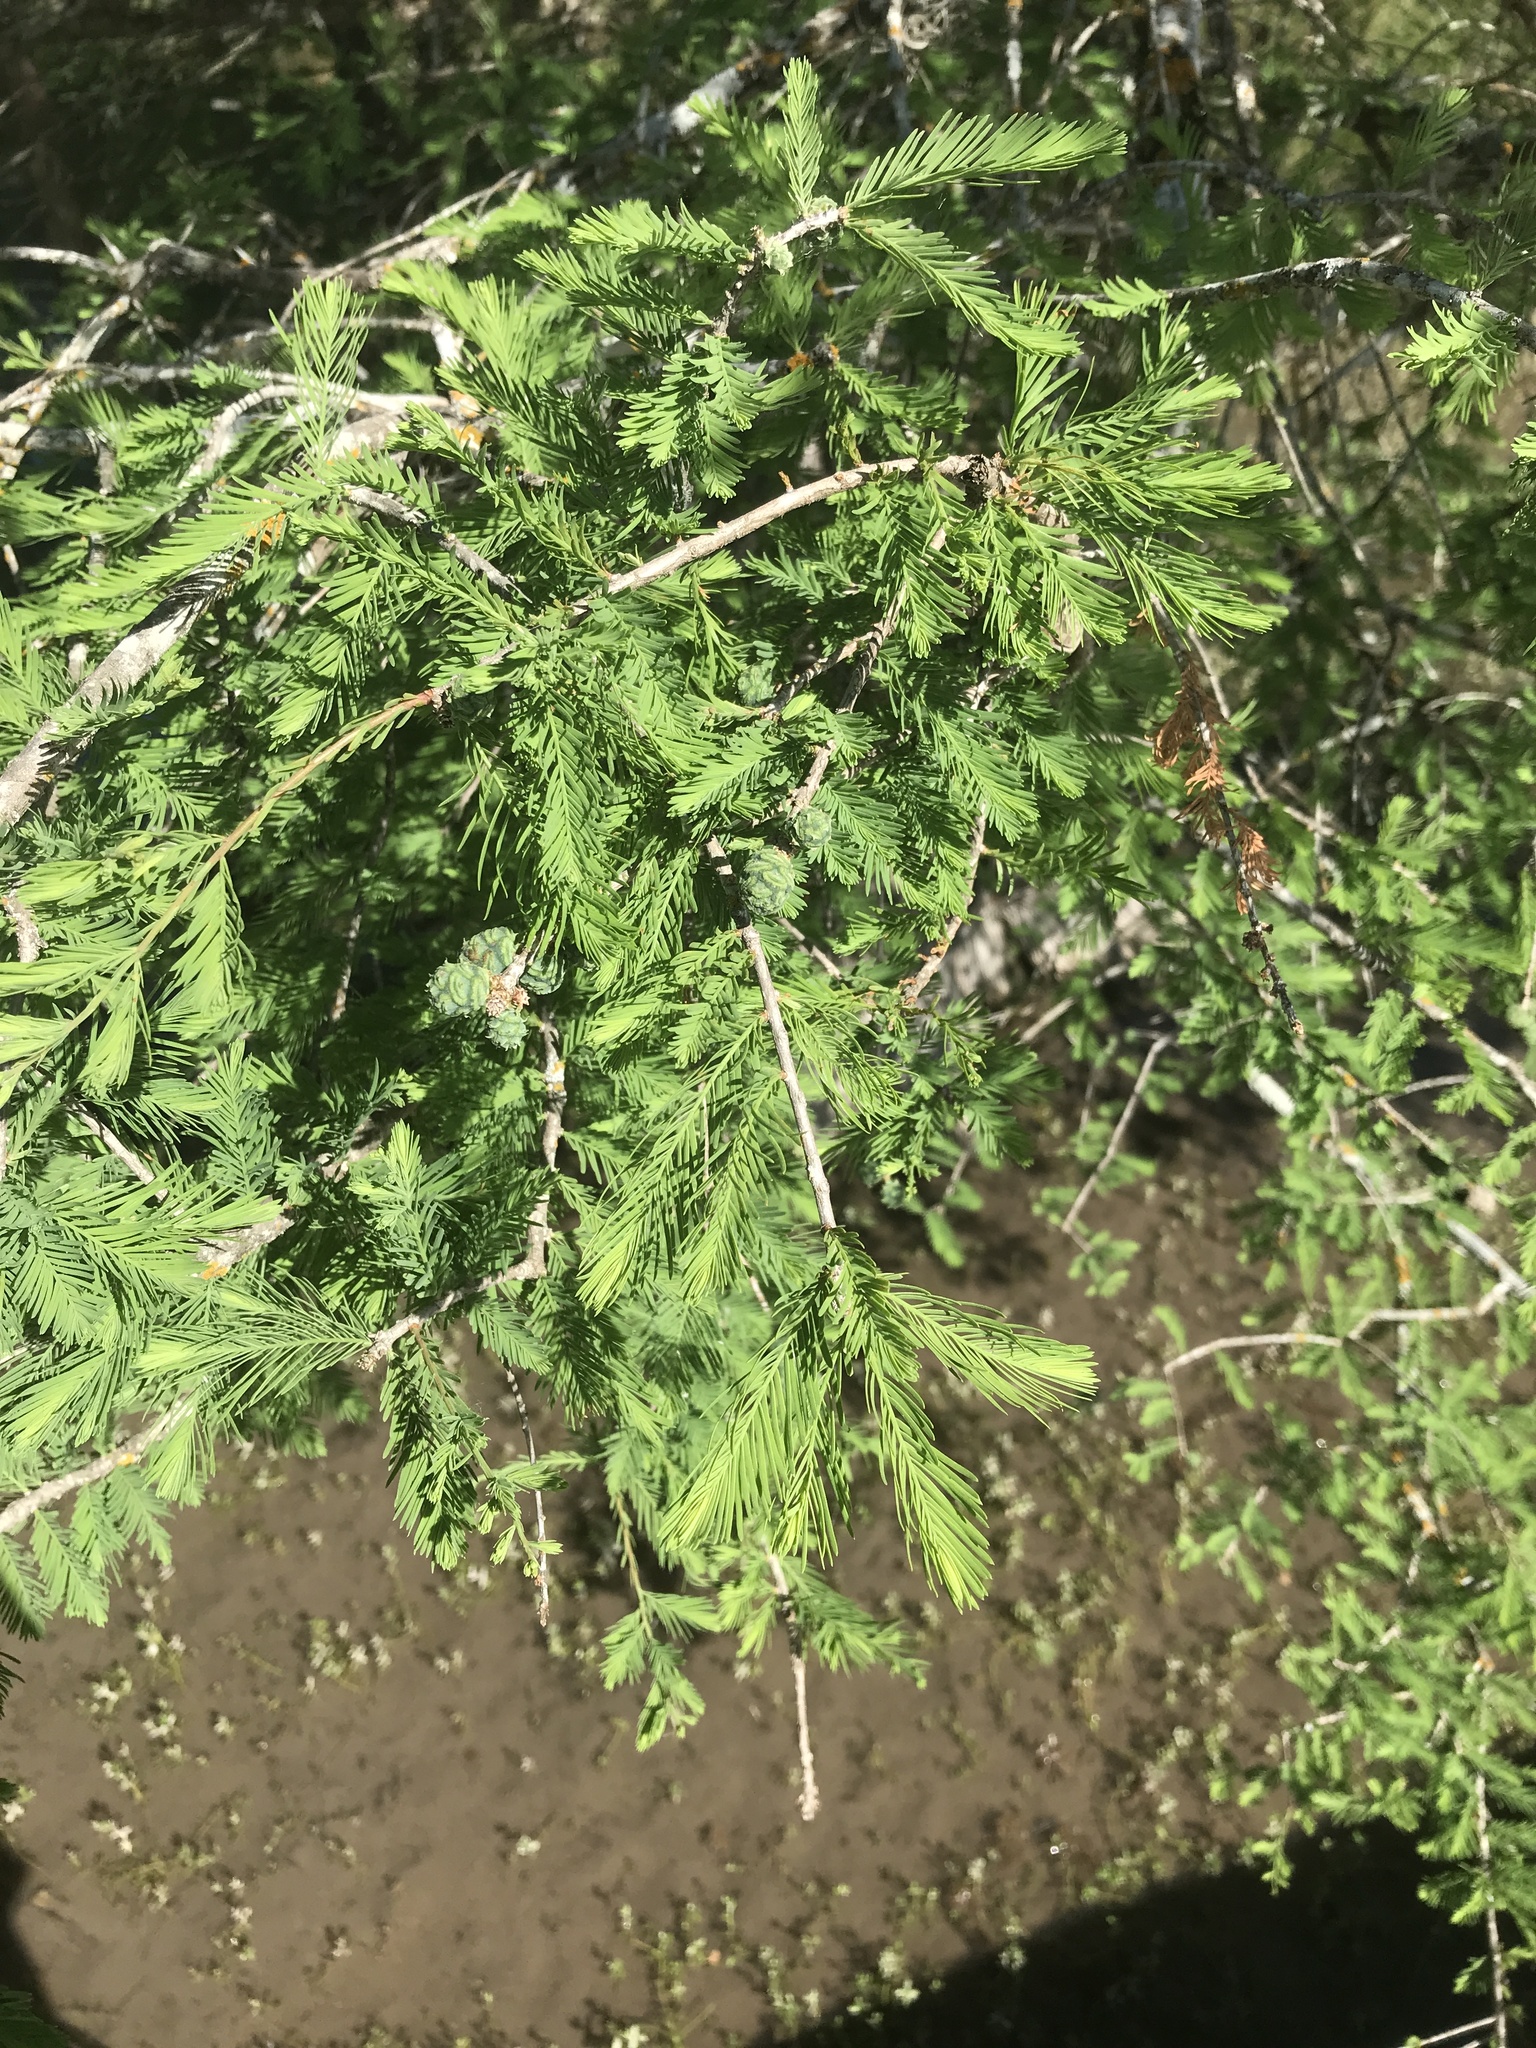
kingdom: Plantae
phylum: Tracheophyta
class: Pinopsida
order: Pinales
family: Cupressaceae
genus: Taxodium
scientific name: Taxodium distichum
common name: Bald cypress
